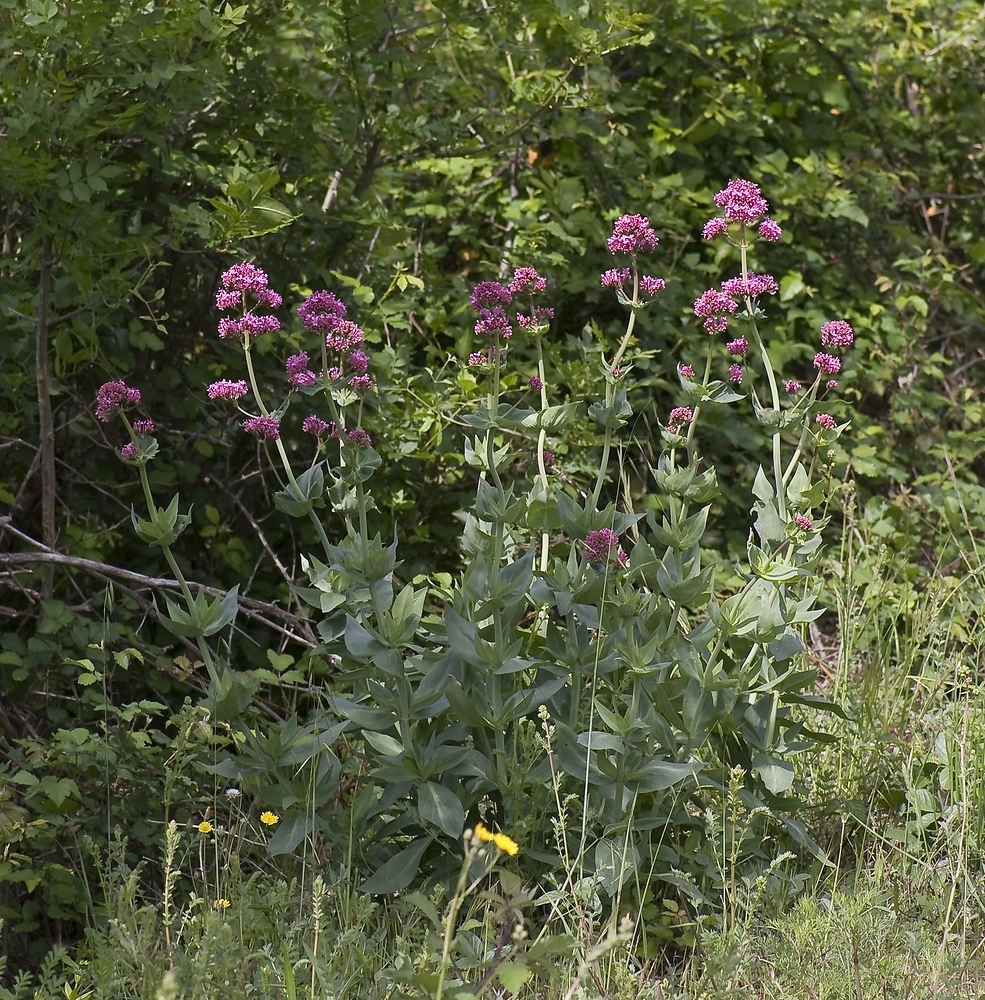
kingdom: Plantae
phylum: Tracheophyta
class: Magnoliopsida
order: Dipsacales
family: Caprifoliaceae
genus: Centranthus
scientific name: Centranthus ruber
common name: Red valerian
